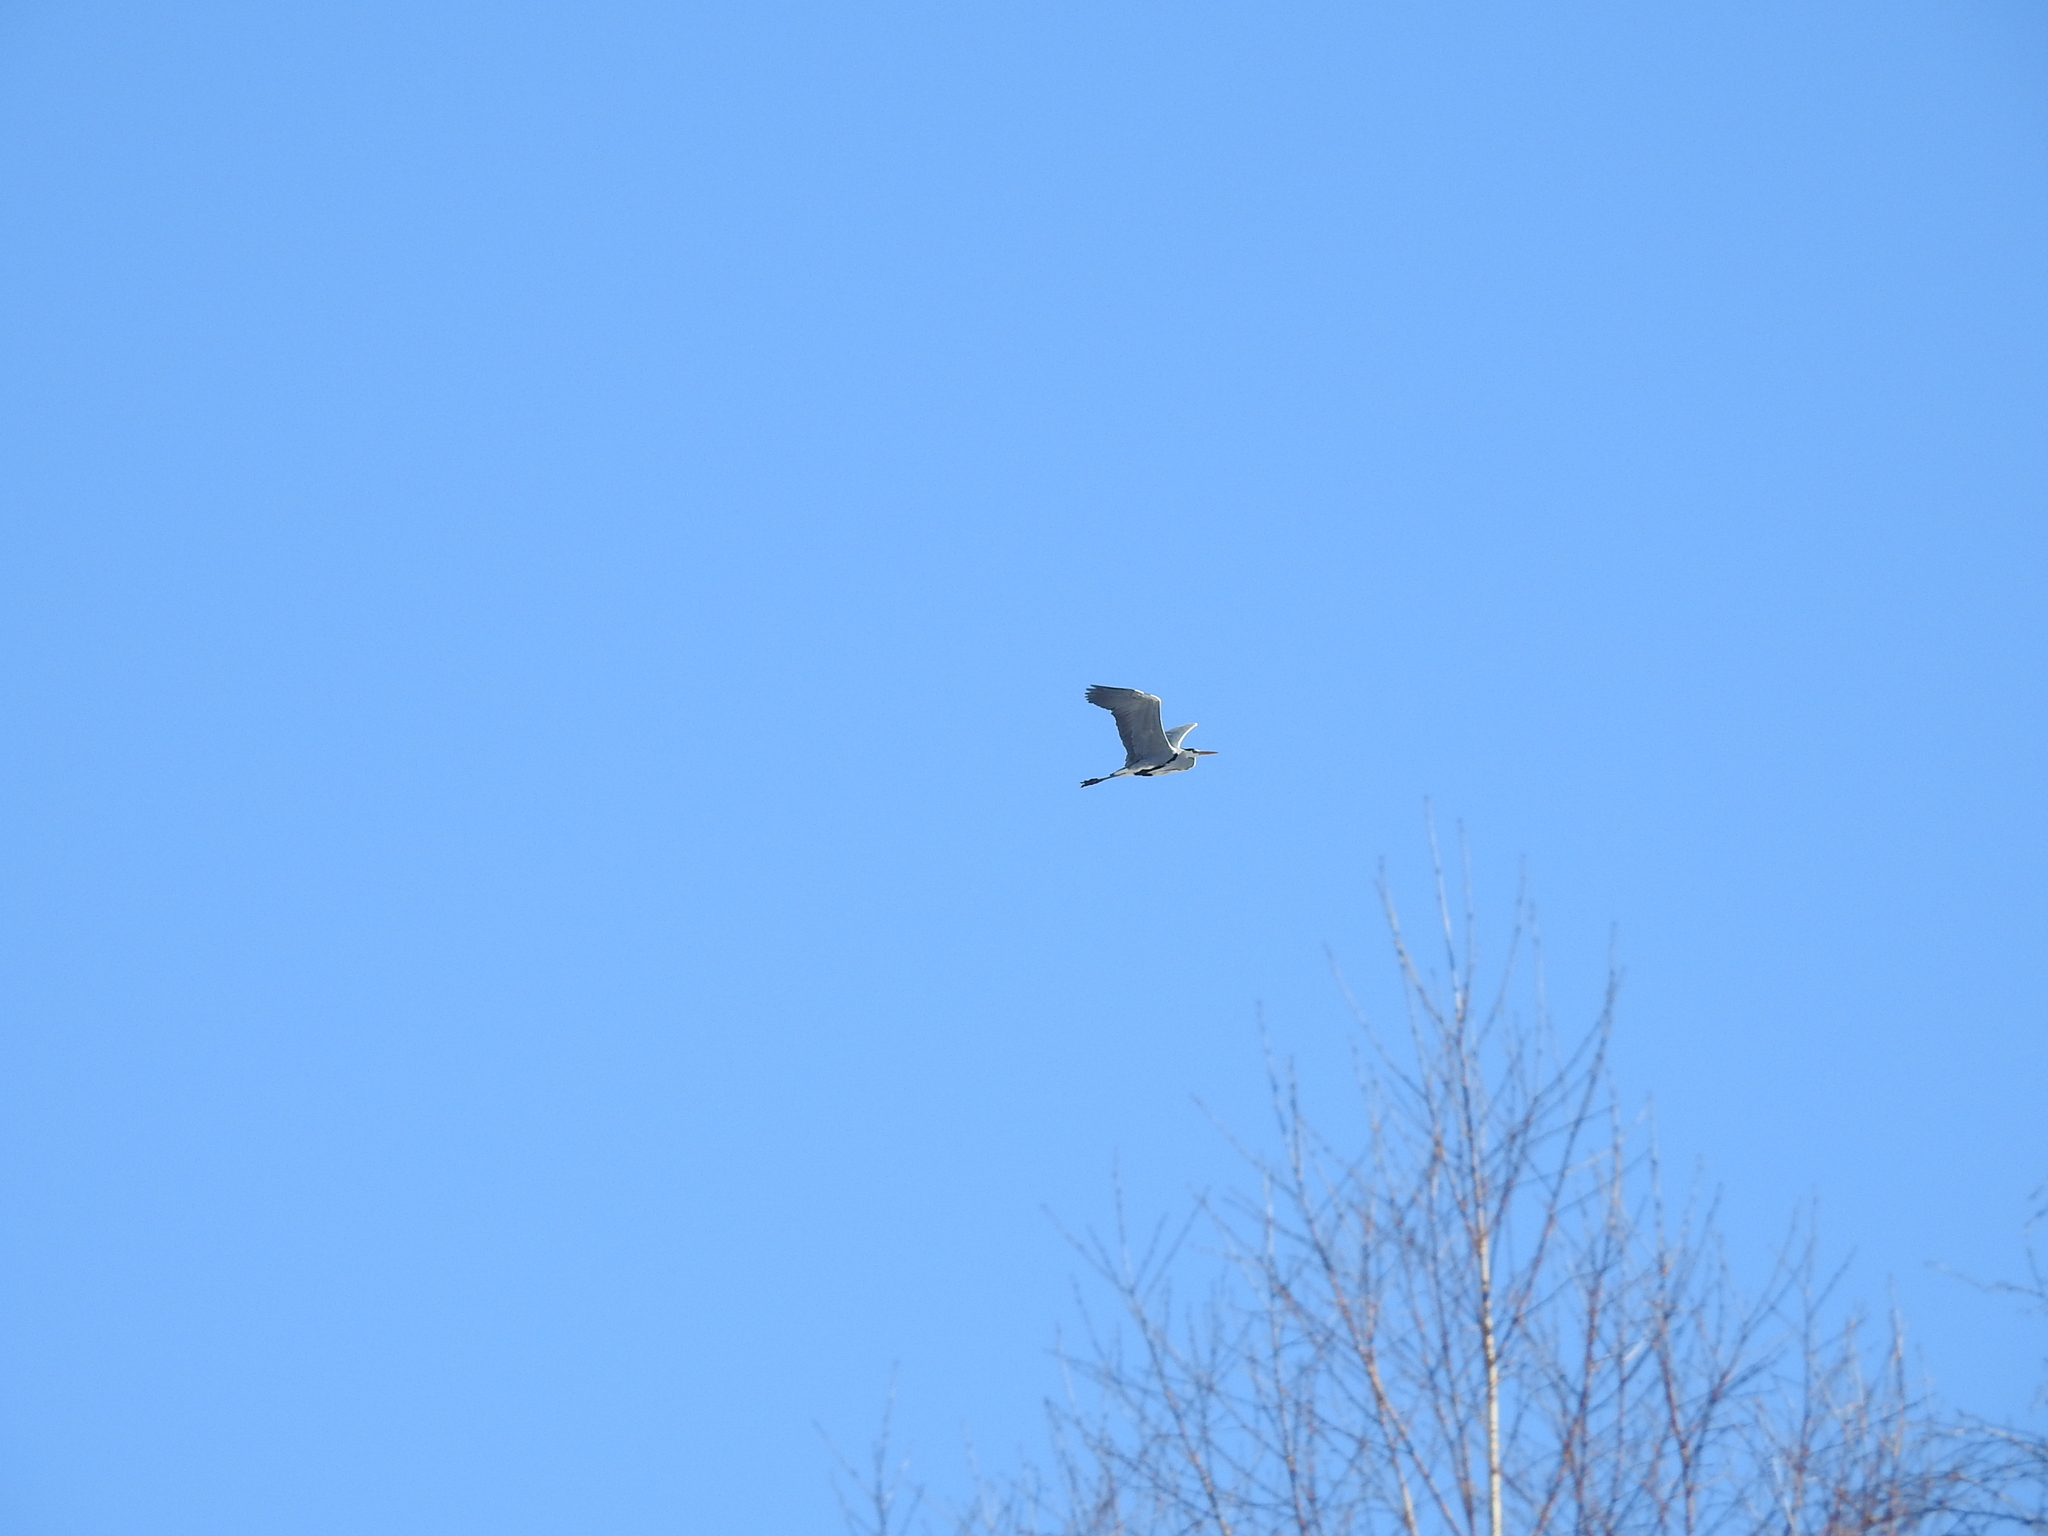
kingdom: Animalia
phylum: Chordata
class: Aves
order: Pelecaniformes
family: Ardeidae
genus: Ardea
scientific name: Ardea cinerea
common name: Grey heron
